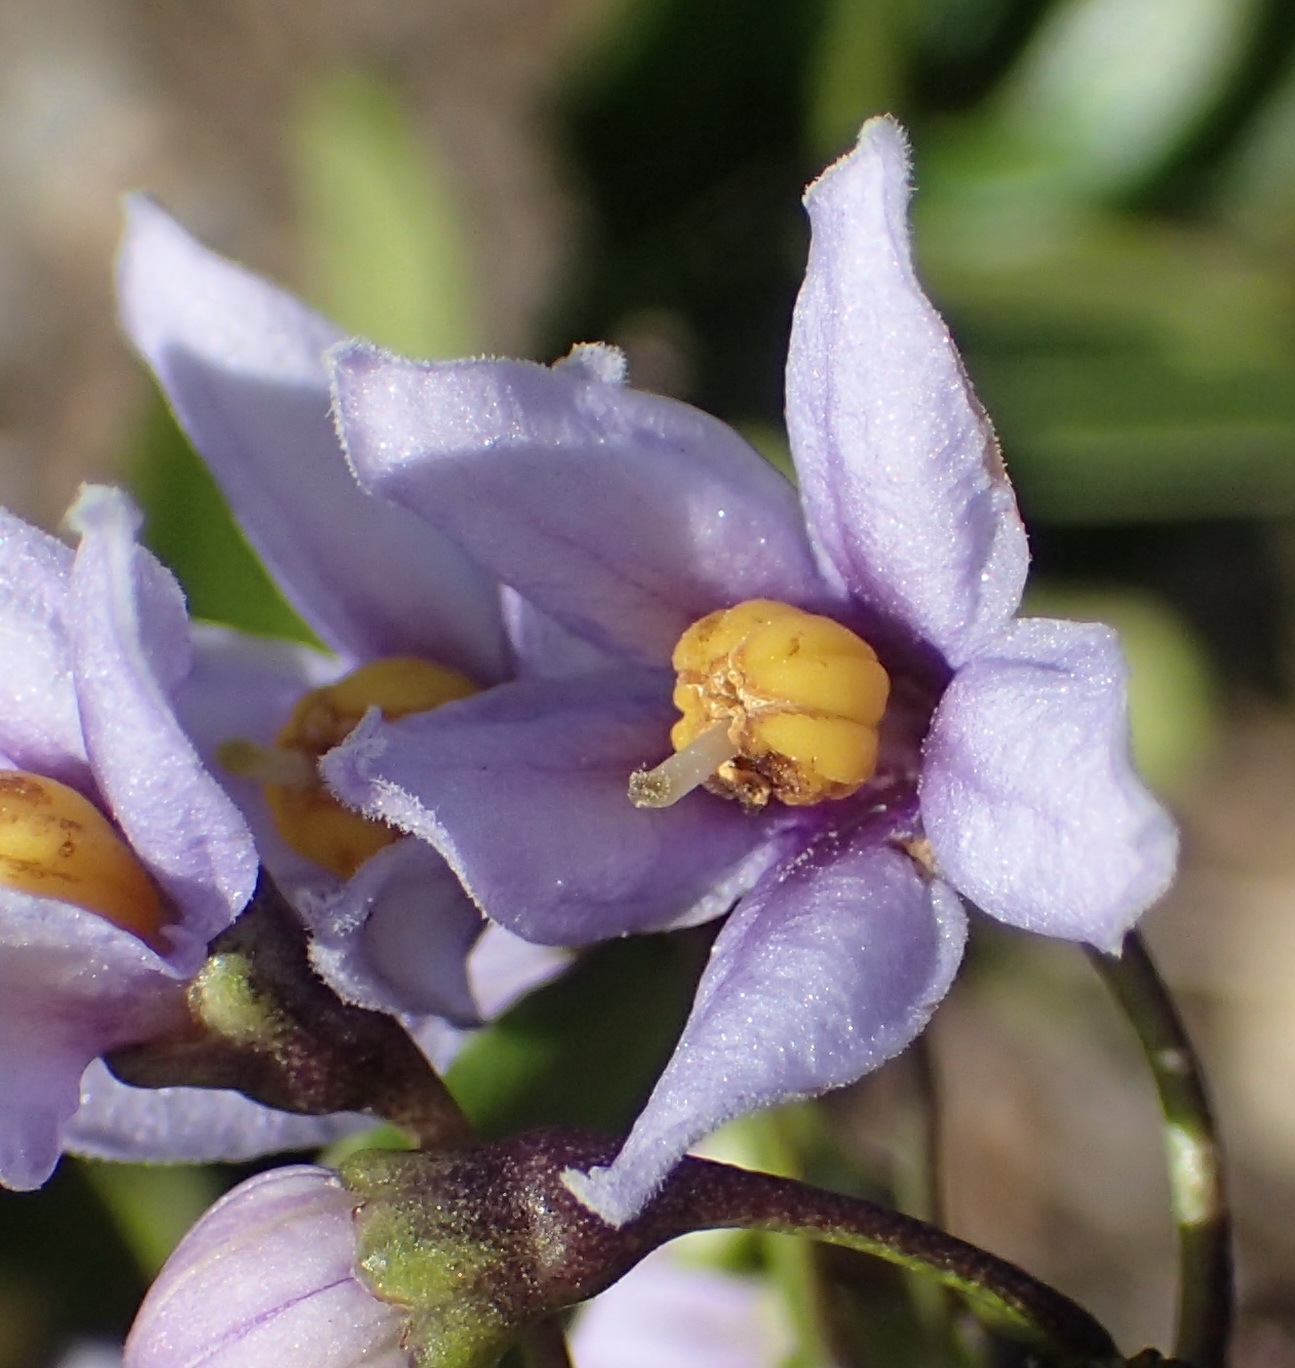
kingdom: Plantae
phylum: Tracheophyta
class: Magnoliopsida
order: Solanales
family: Solanaceae
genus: Solanum
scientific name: Solanum africanum
